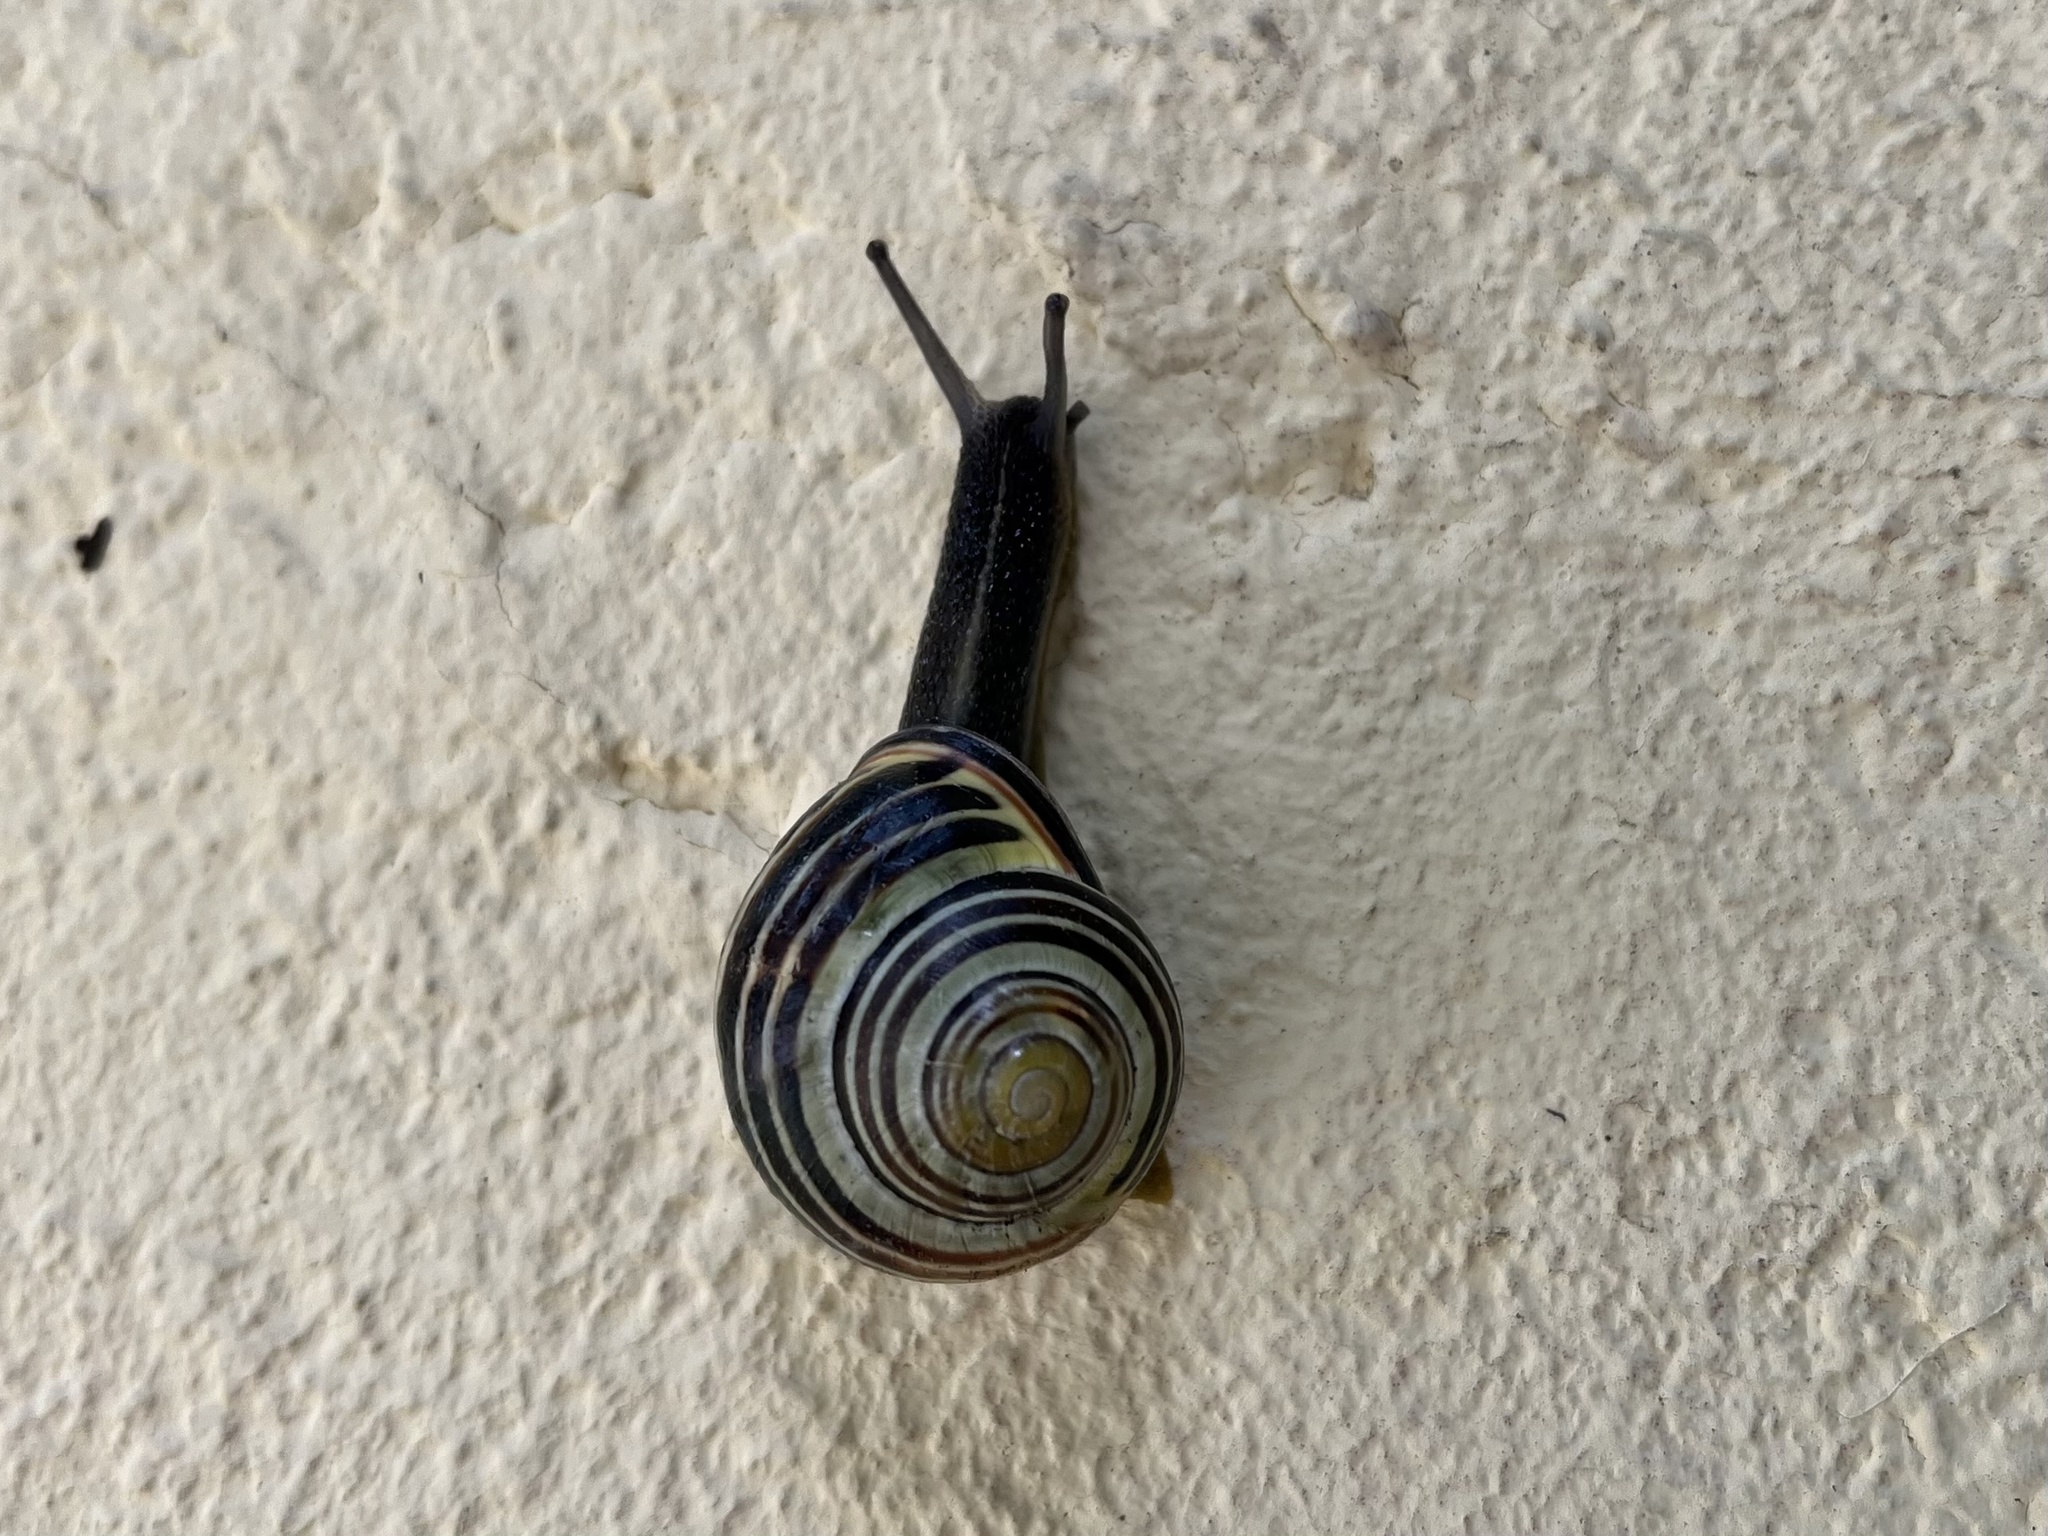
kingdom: Animalia
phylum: Mollusca
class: Gastropoda
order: Stylommatophora
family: Helicidae
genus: Cepaea
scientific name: Cepaea nemoralis
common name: Grovesnail
